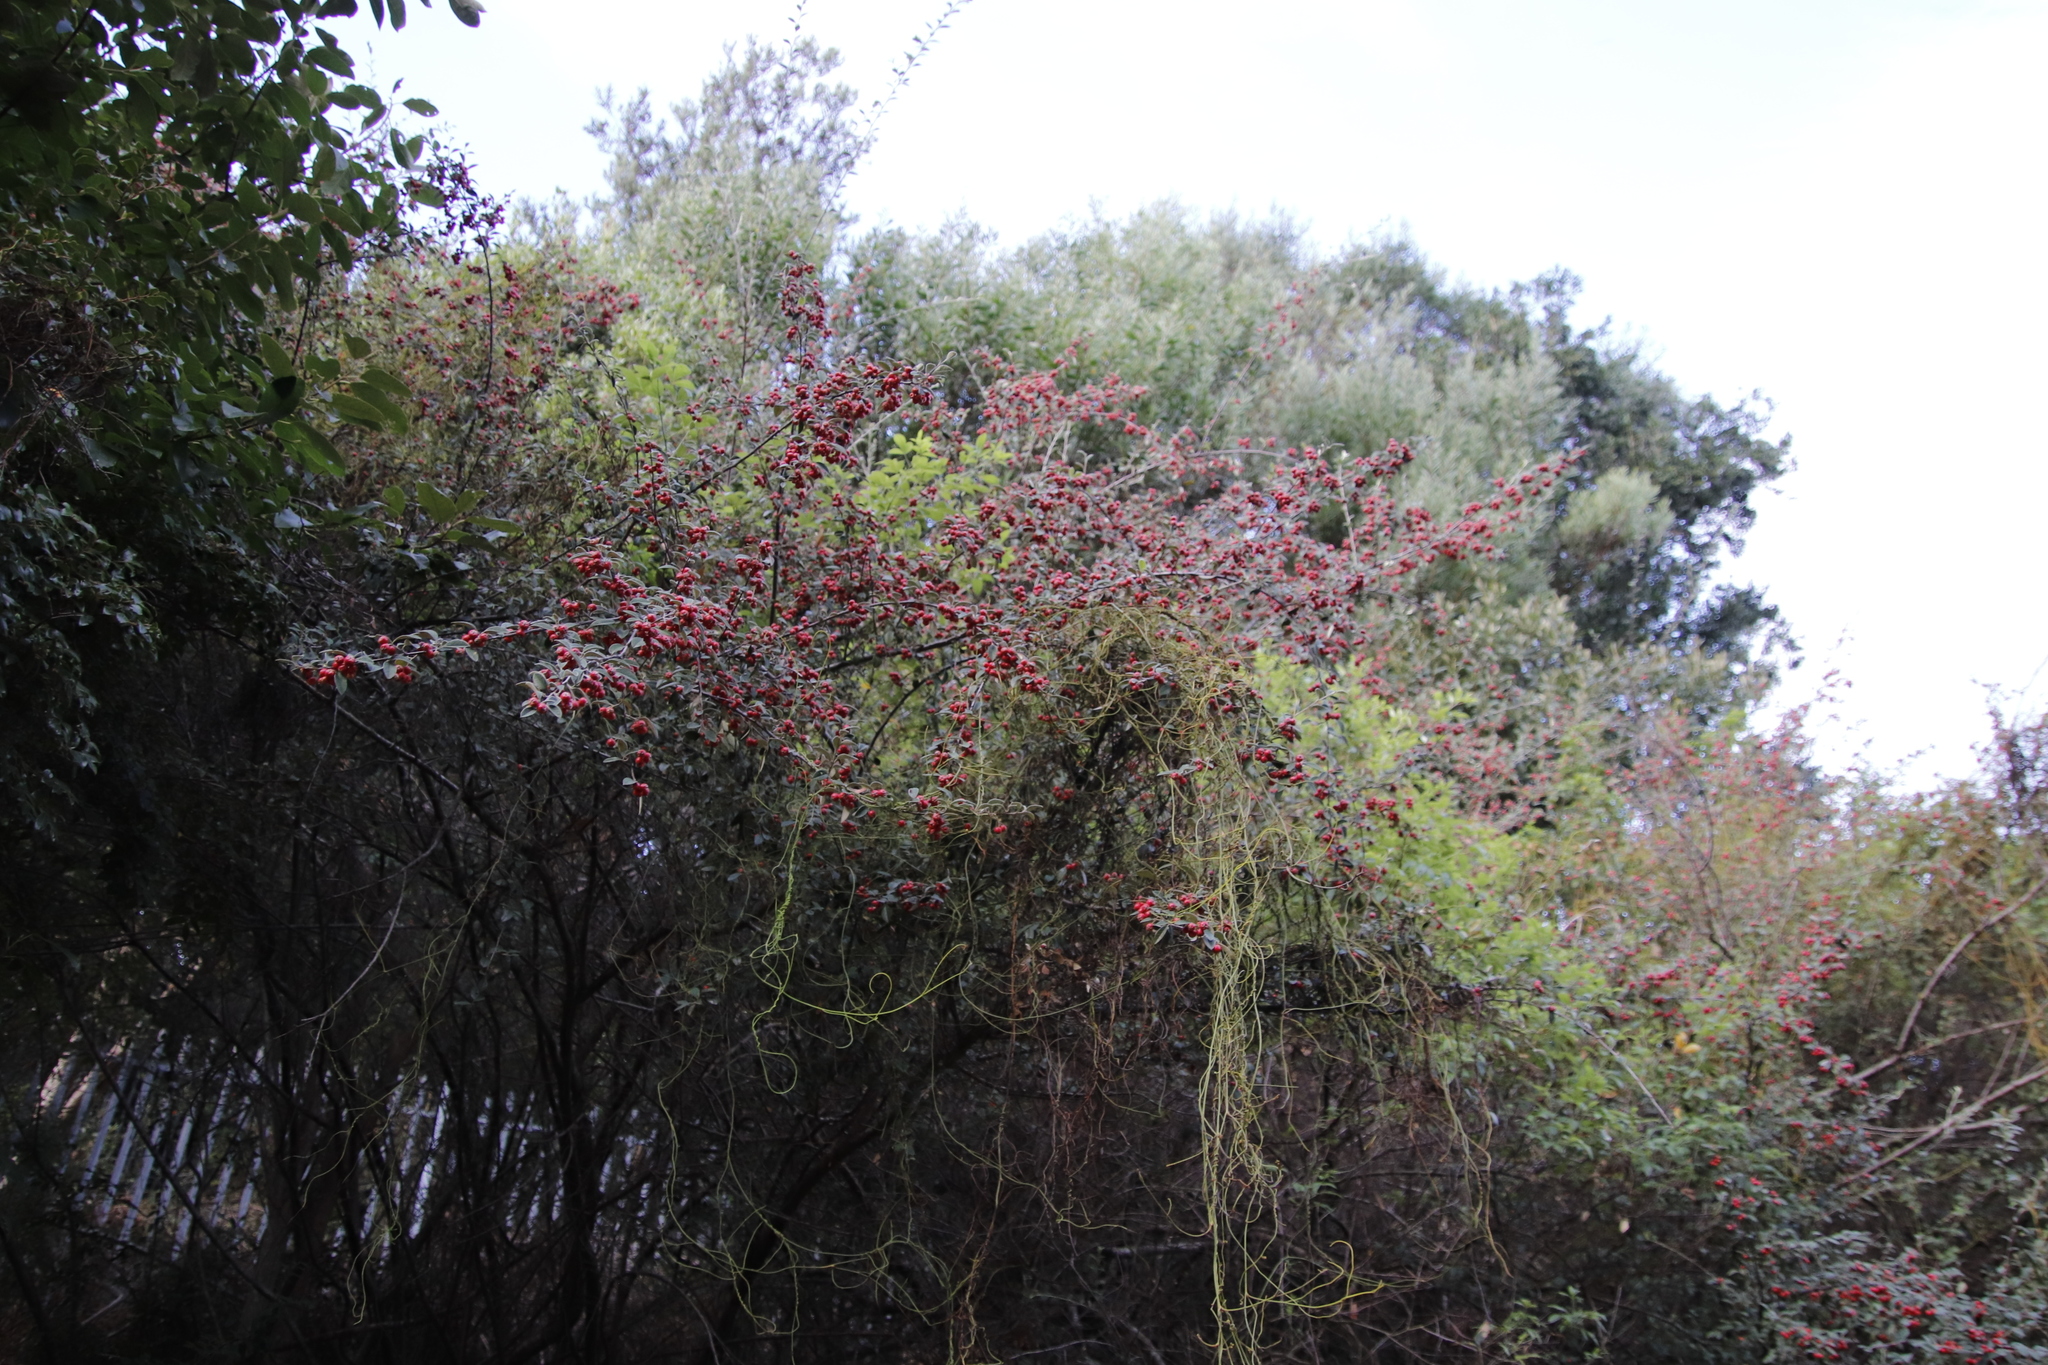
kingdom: Plantae
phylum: Tracheophyta
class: Magnoliopsida
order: Rosales
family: Rosaceae
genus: Cotoneaster
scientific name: Cotoneaster pannosus
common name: Silverleaf cotoneaster
